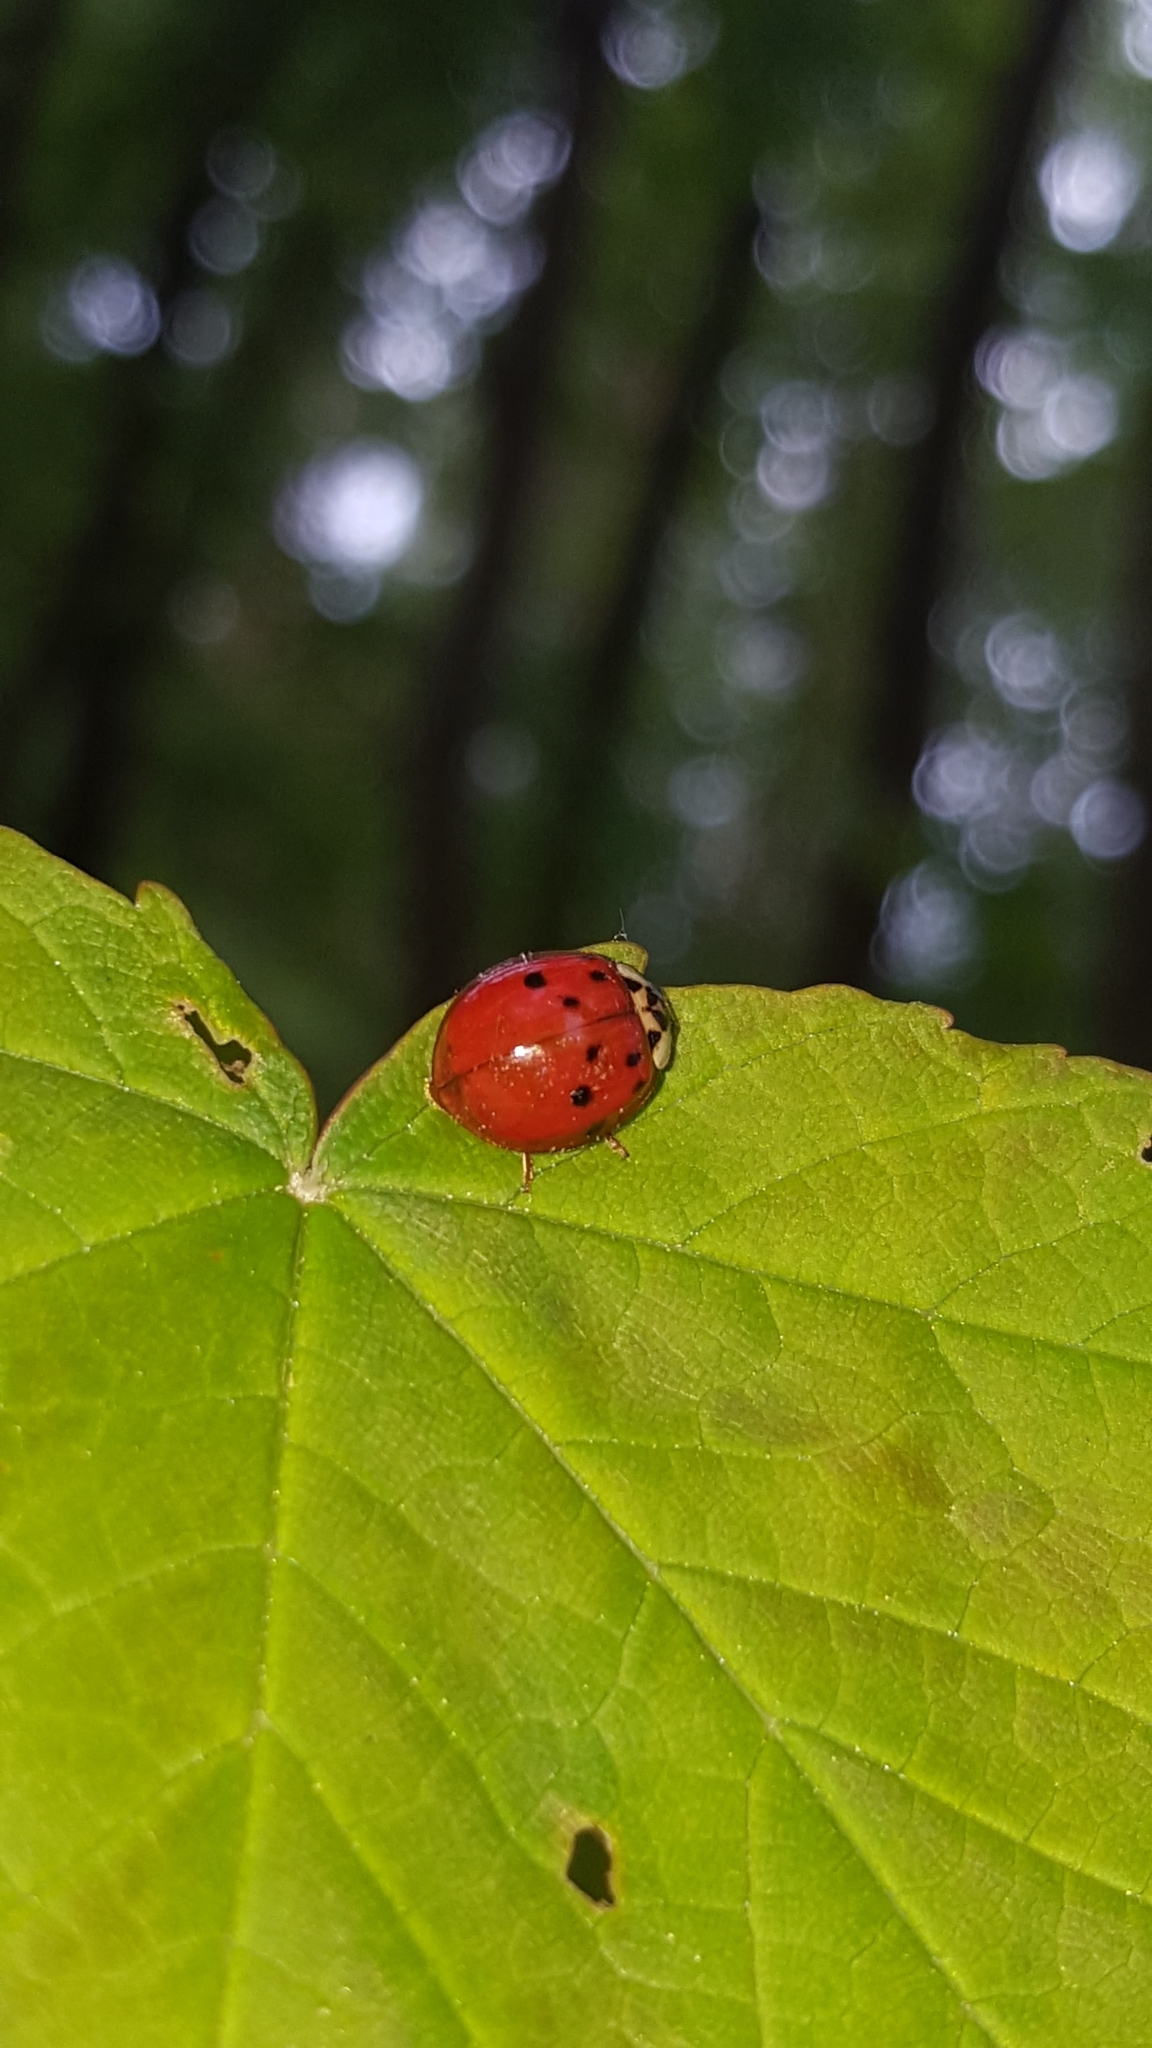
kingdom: Animalia
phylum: Arthropoda
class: Insecta
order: Coleoptera
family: Coccinellidae
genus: Harmonia
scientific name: Harmonia axyridis
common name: Harlequin ladybird
